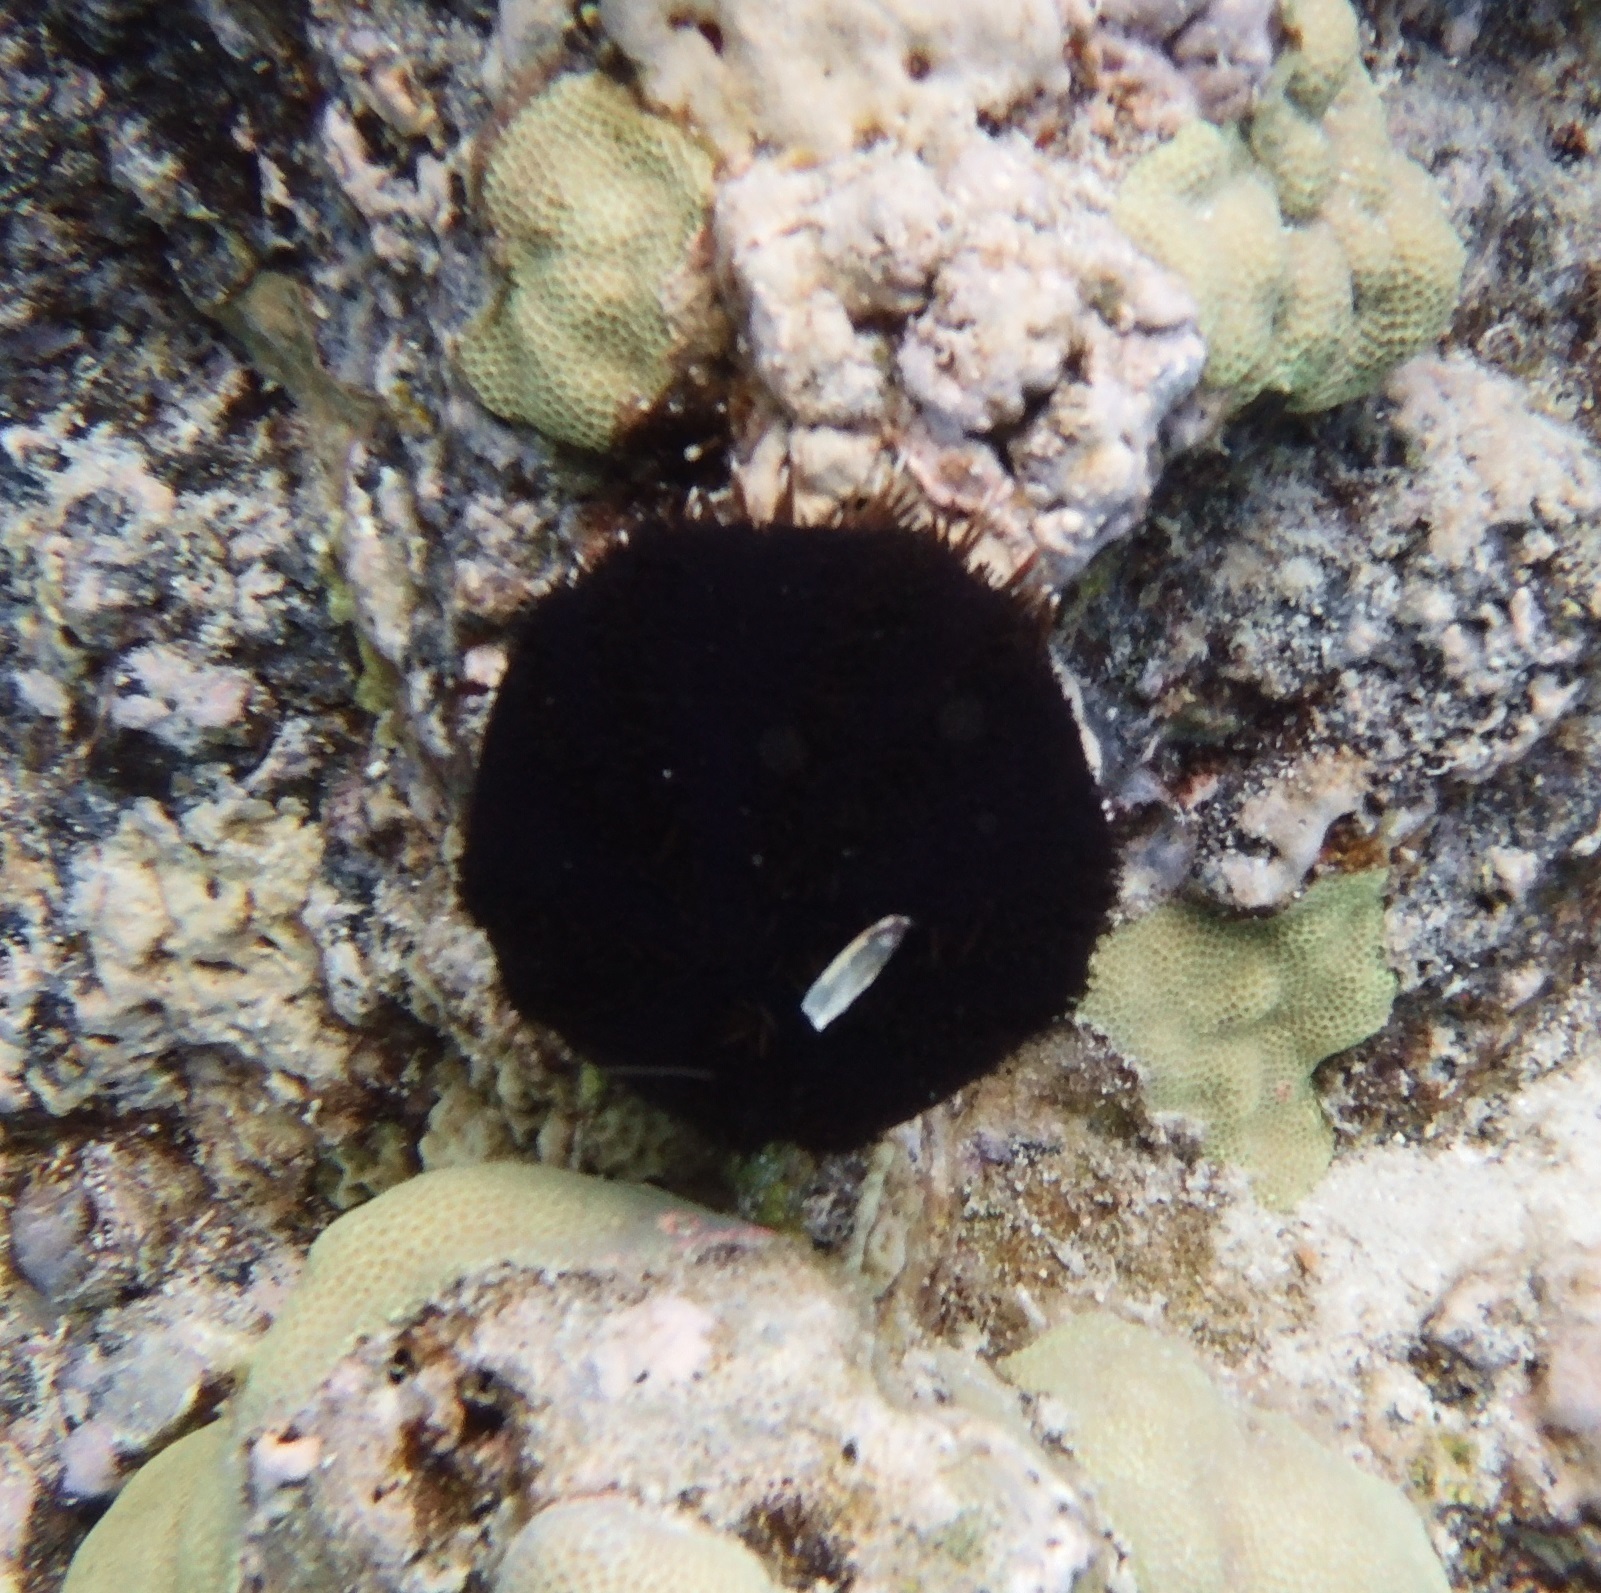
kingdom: Animalia
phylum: Echinodermata
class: Echinoidea
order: Camarodonta
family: Toxopneustidae
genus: Tripneustes
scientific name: Tripneustes gratilla
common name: Bischofsmützenseeigel
